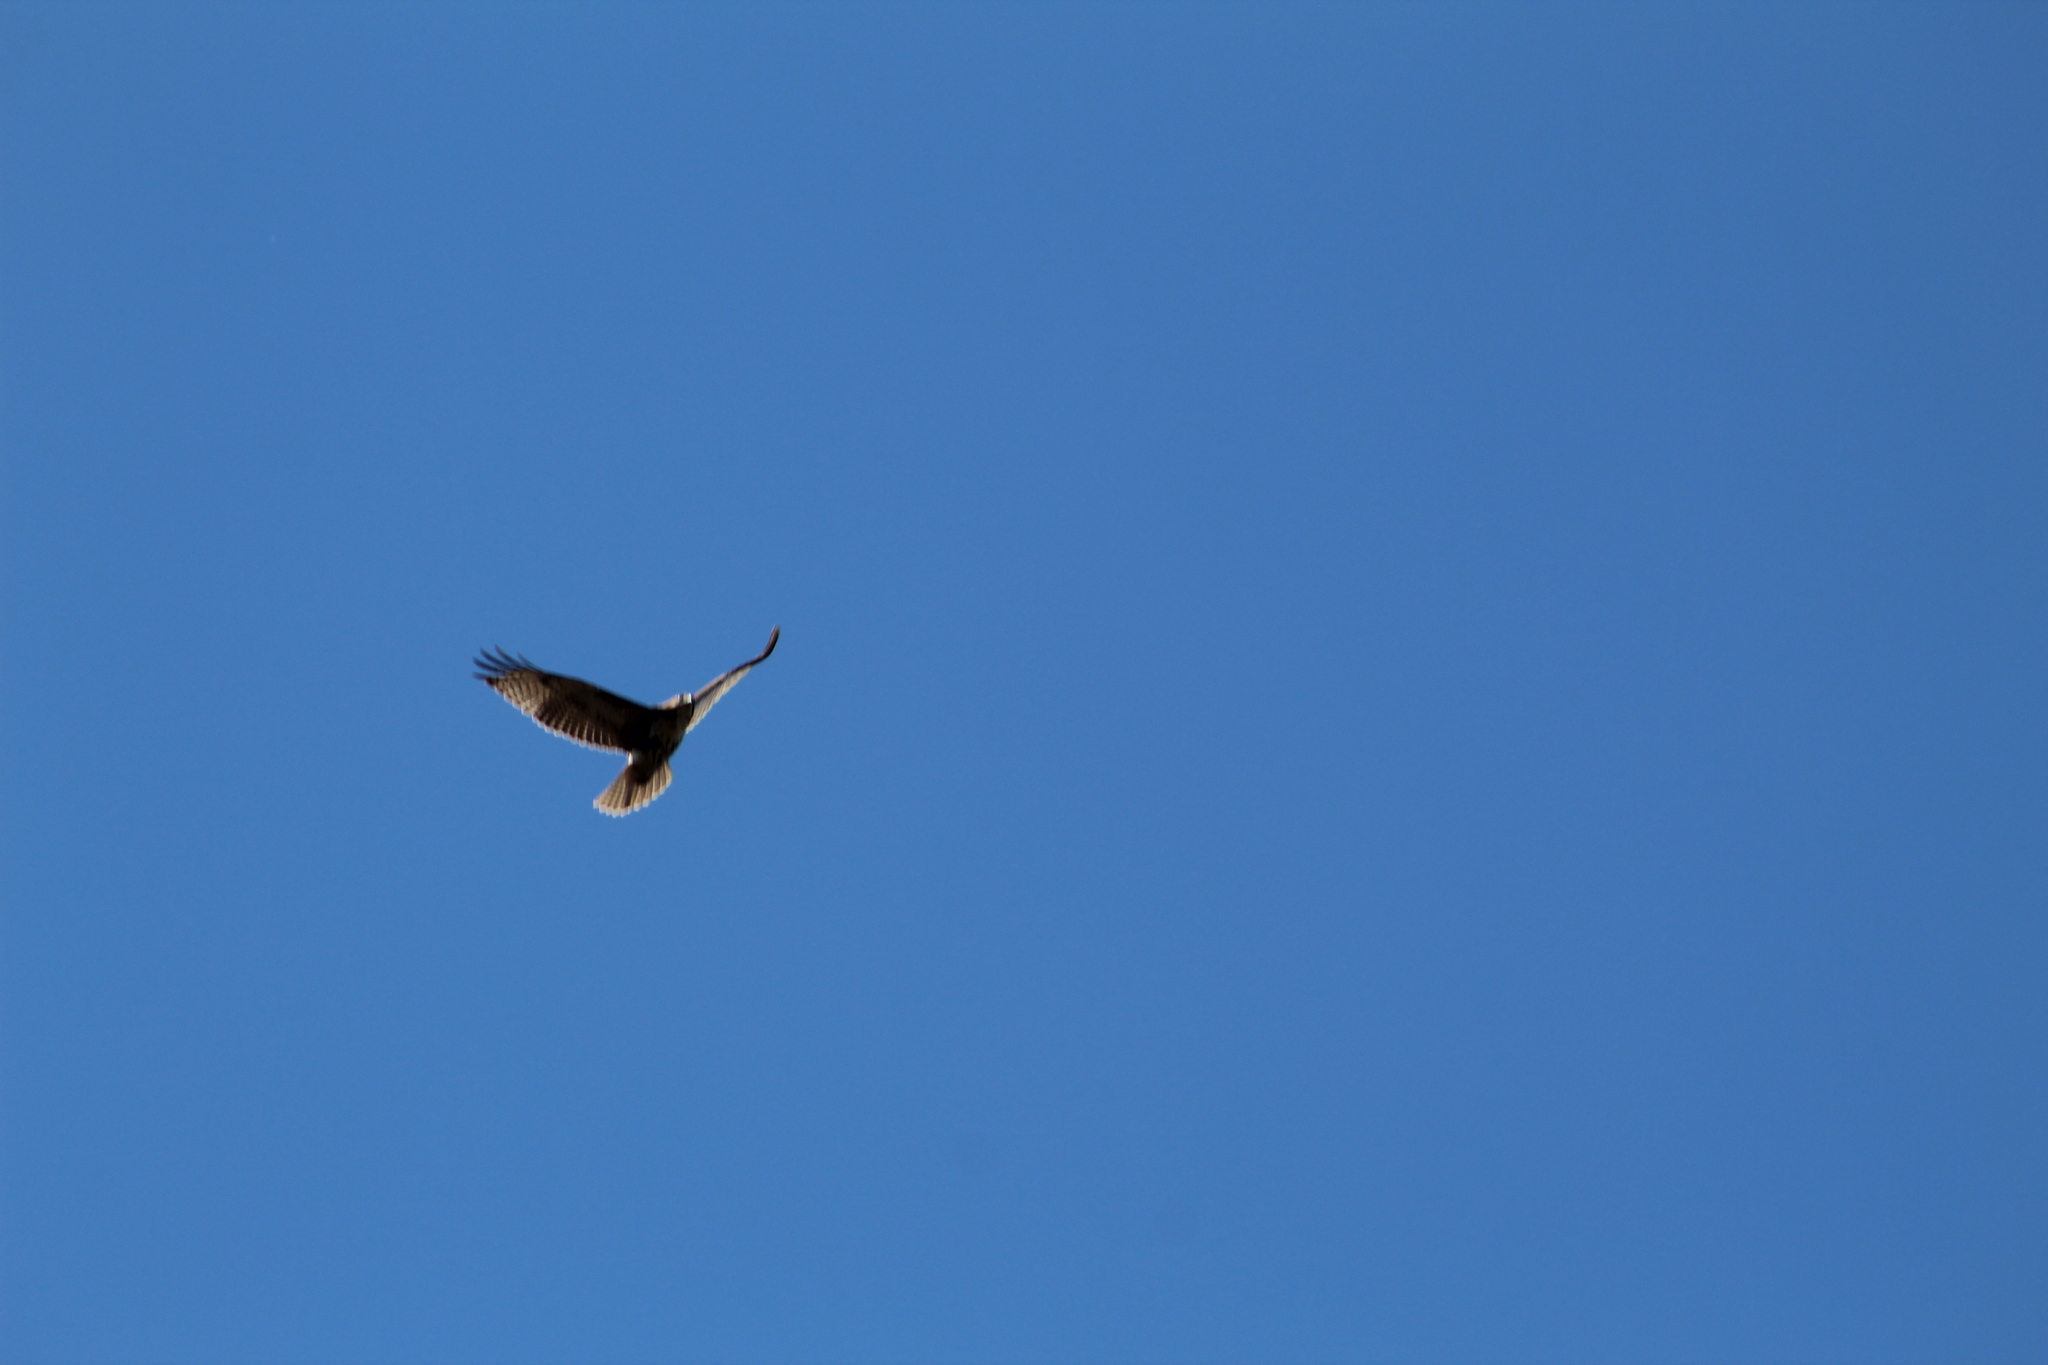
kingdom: Animalia
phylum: Chordata
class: Aves
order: Accipitriformes
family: Accipitridae
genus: Buteo
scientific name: Buteo jamaicensis
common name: Red-tailed hawk
